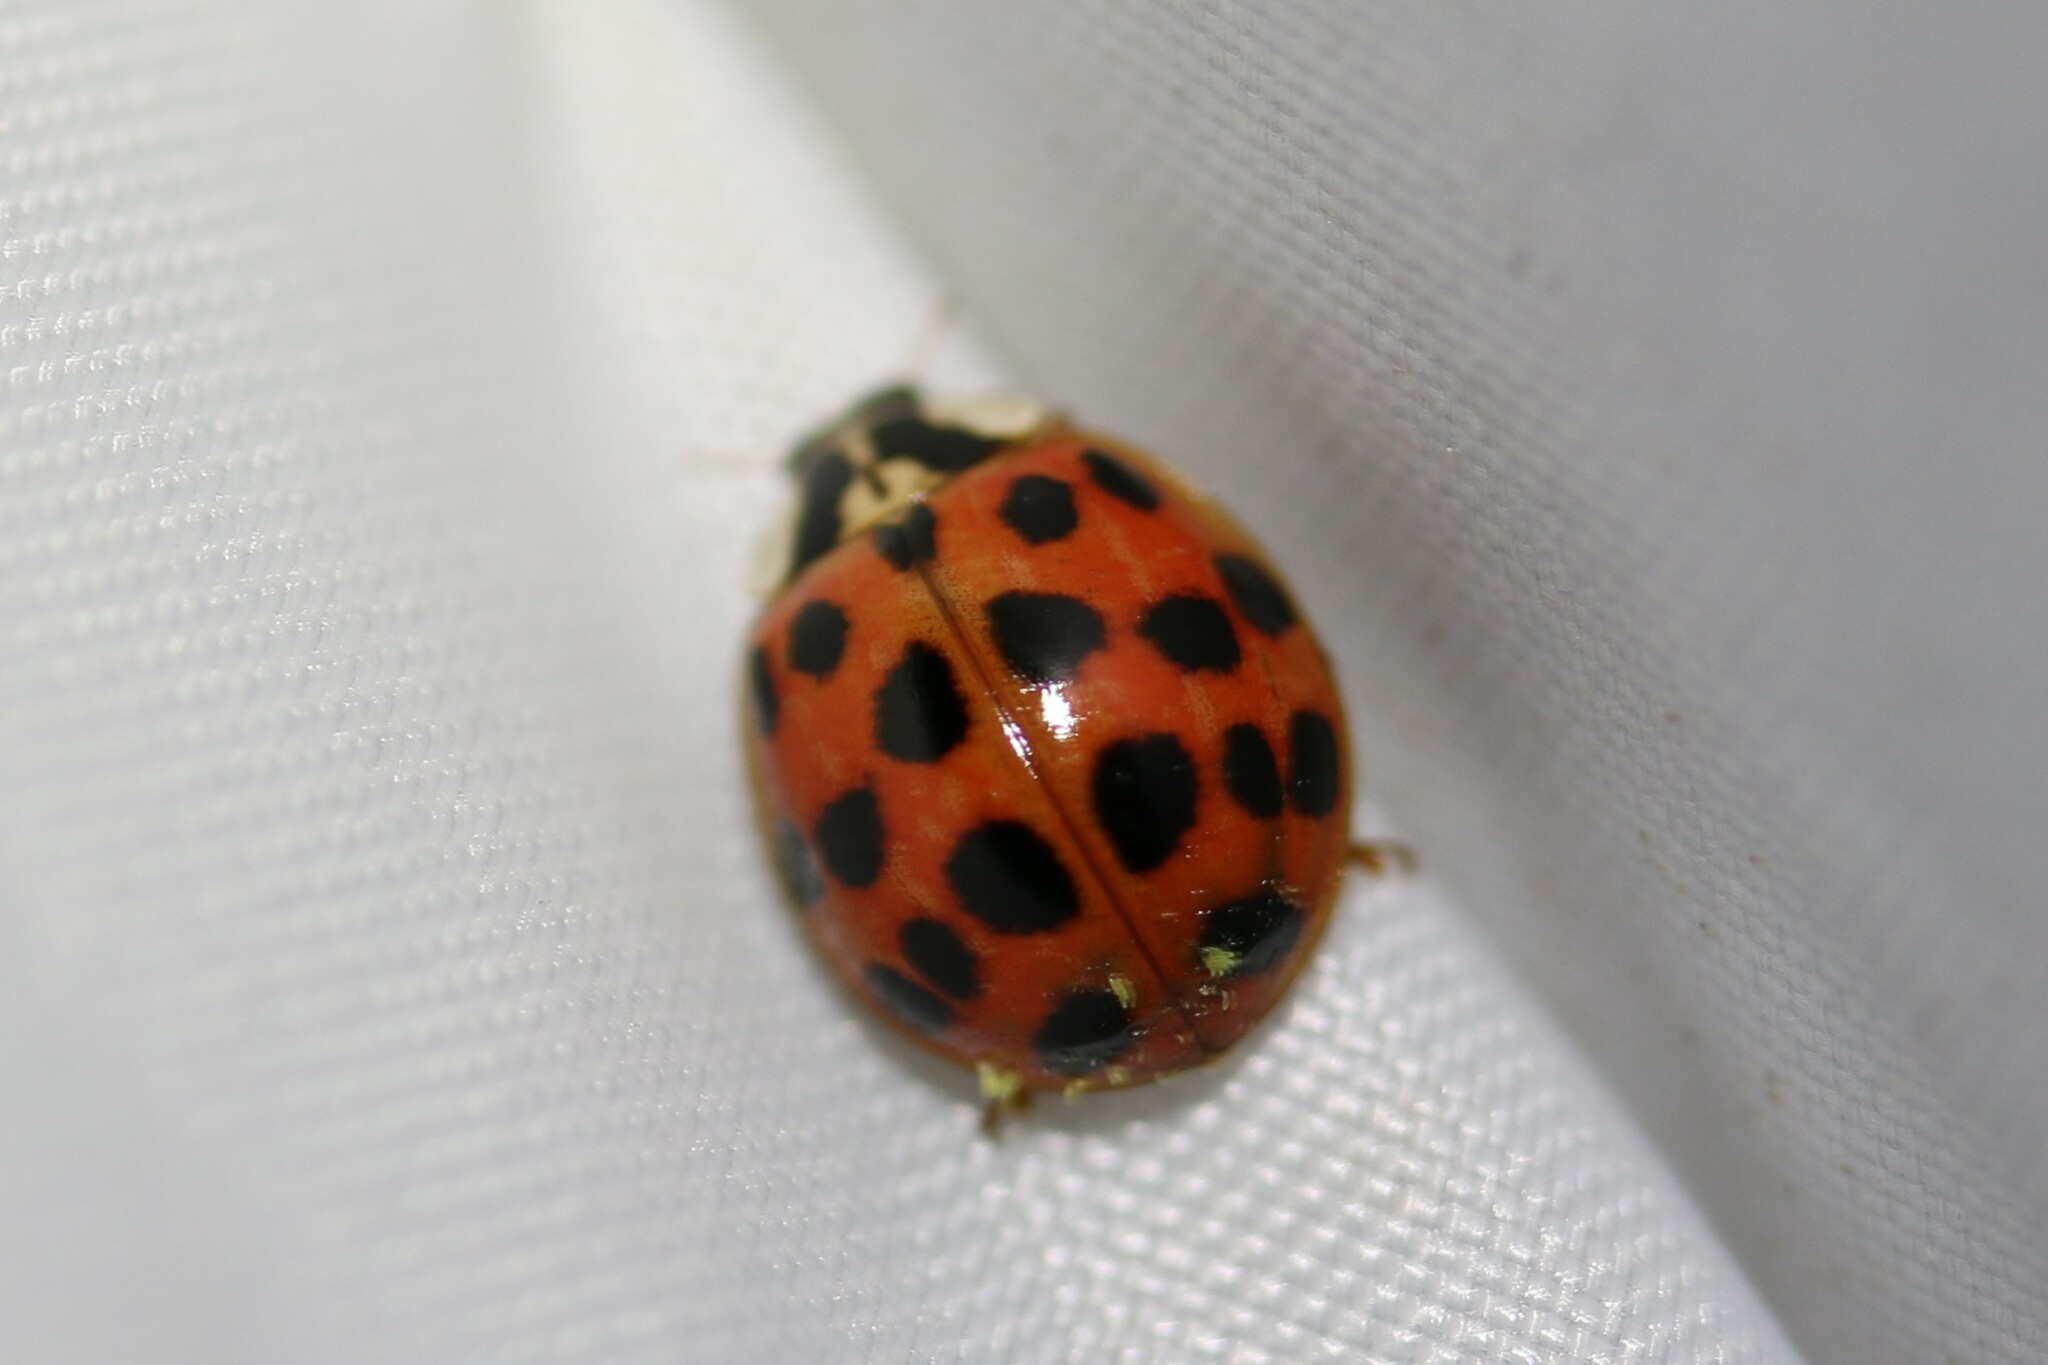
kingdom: Animalia
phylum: Arthropoda
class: Insecta
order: Coleoptera
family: Coccinellidae
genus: Harmonia
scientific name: Harmonia axyridis
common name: Harlequin ladybird
